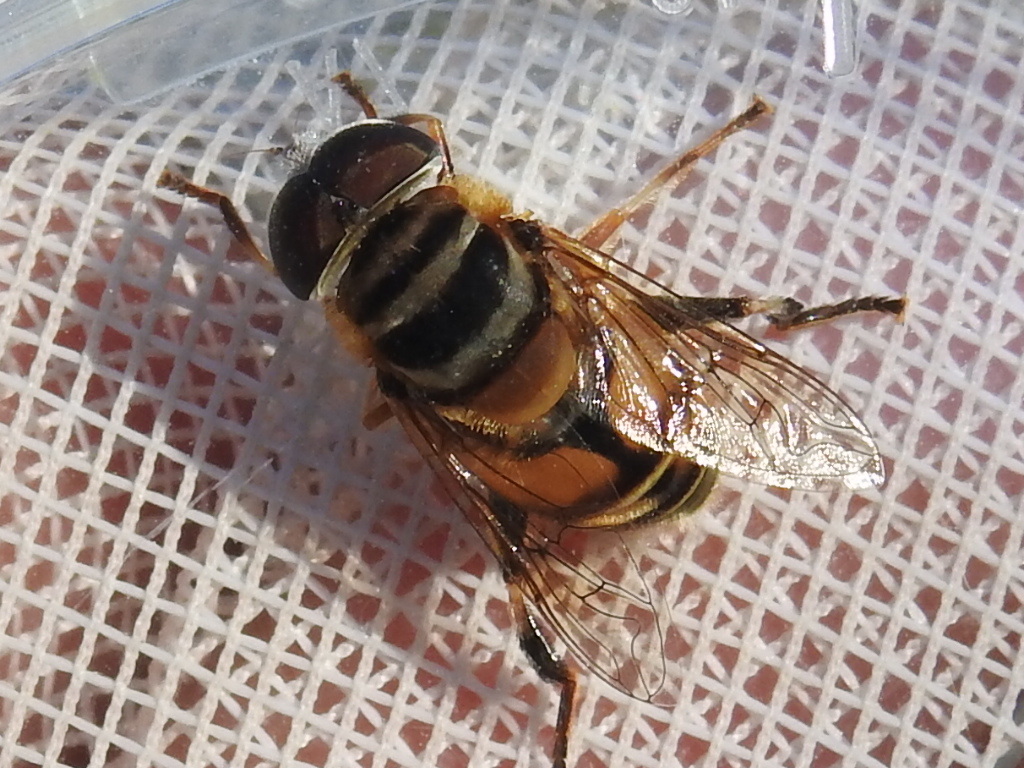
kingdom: Animalia
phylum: Arthropoda
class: Insecta
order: Diptera
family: Syrphidae
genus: Palpada
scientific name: Palpada vinetorum
